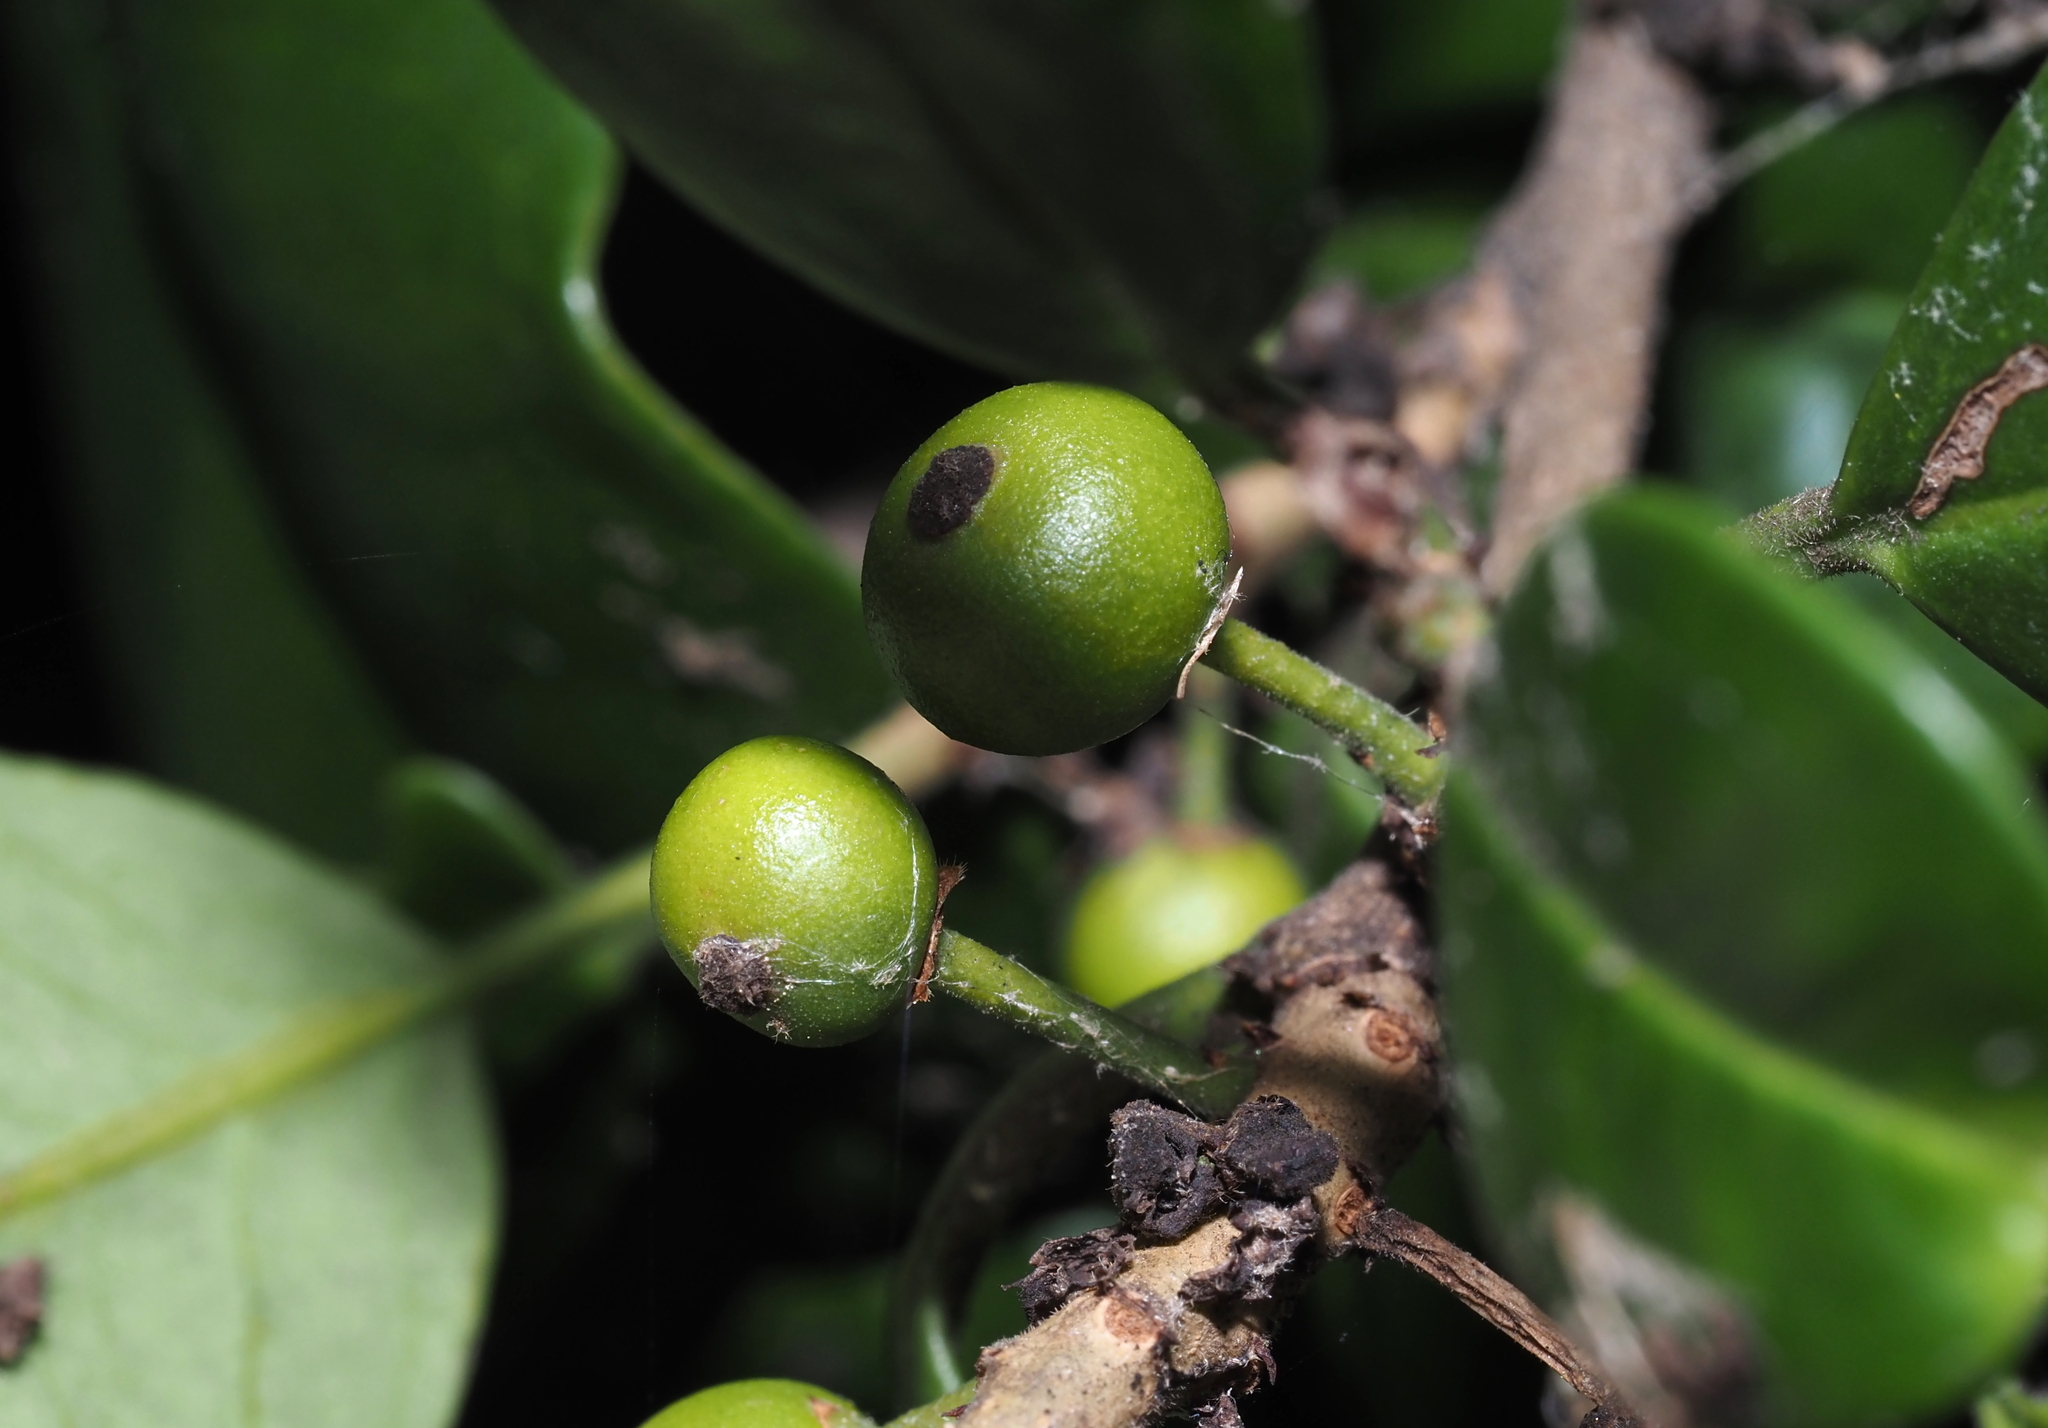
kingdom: Animalia
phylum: Arthropoda
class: Insecta
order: Diptera
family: Cecidomyiidae
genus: Asphondylia
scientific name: Asphondylia ilicicola
